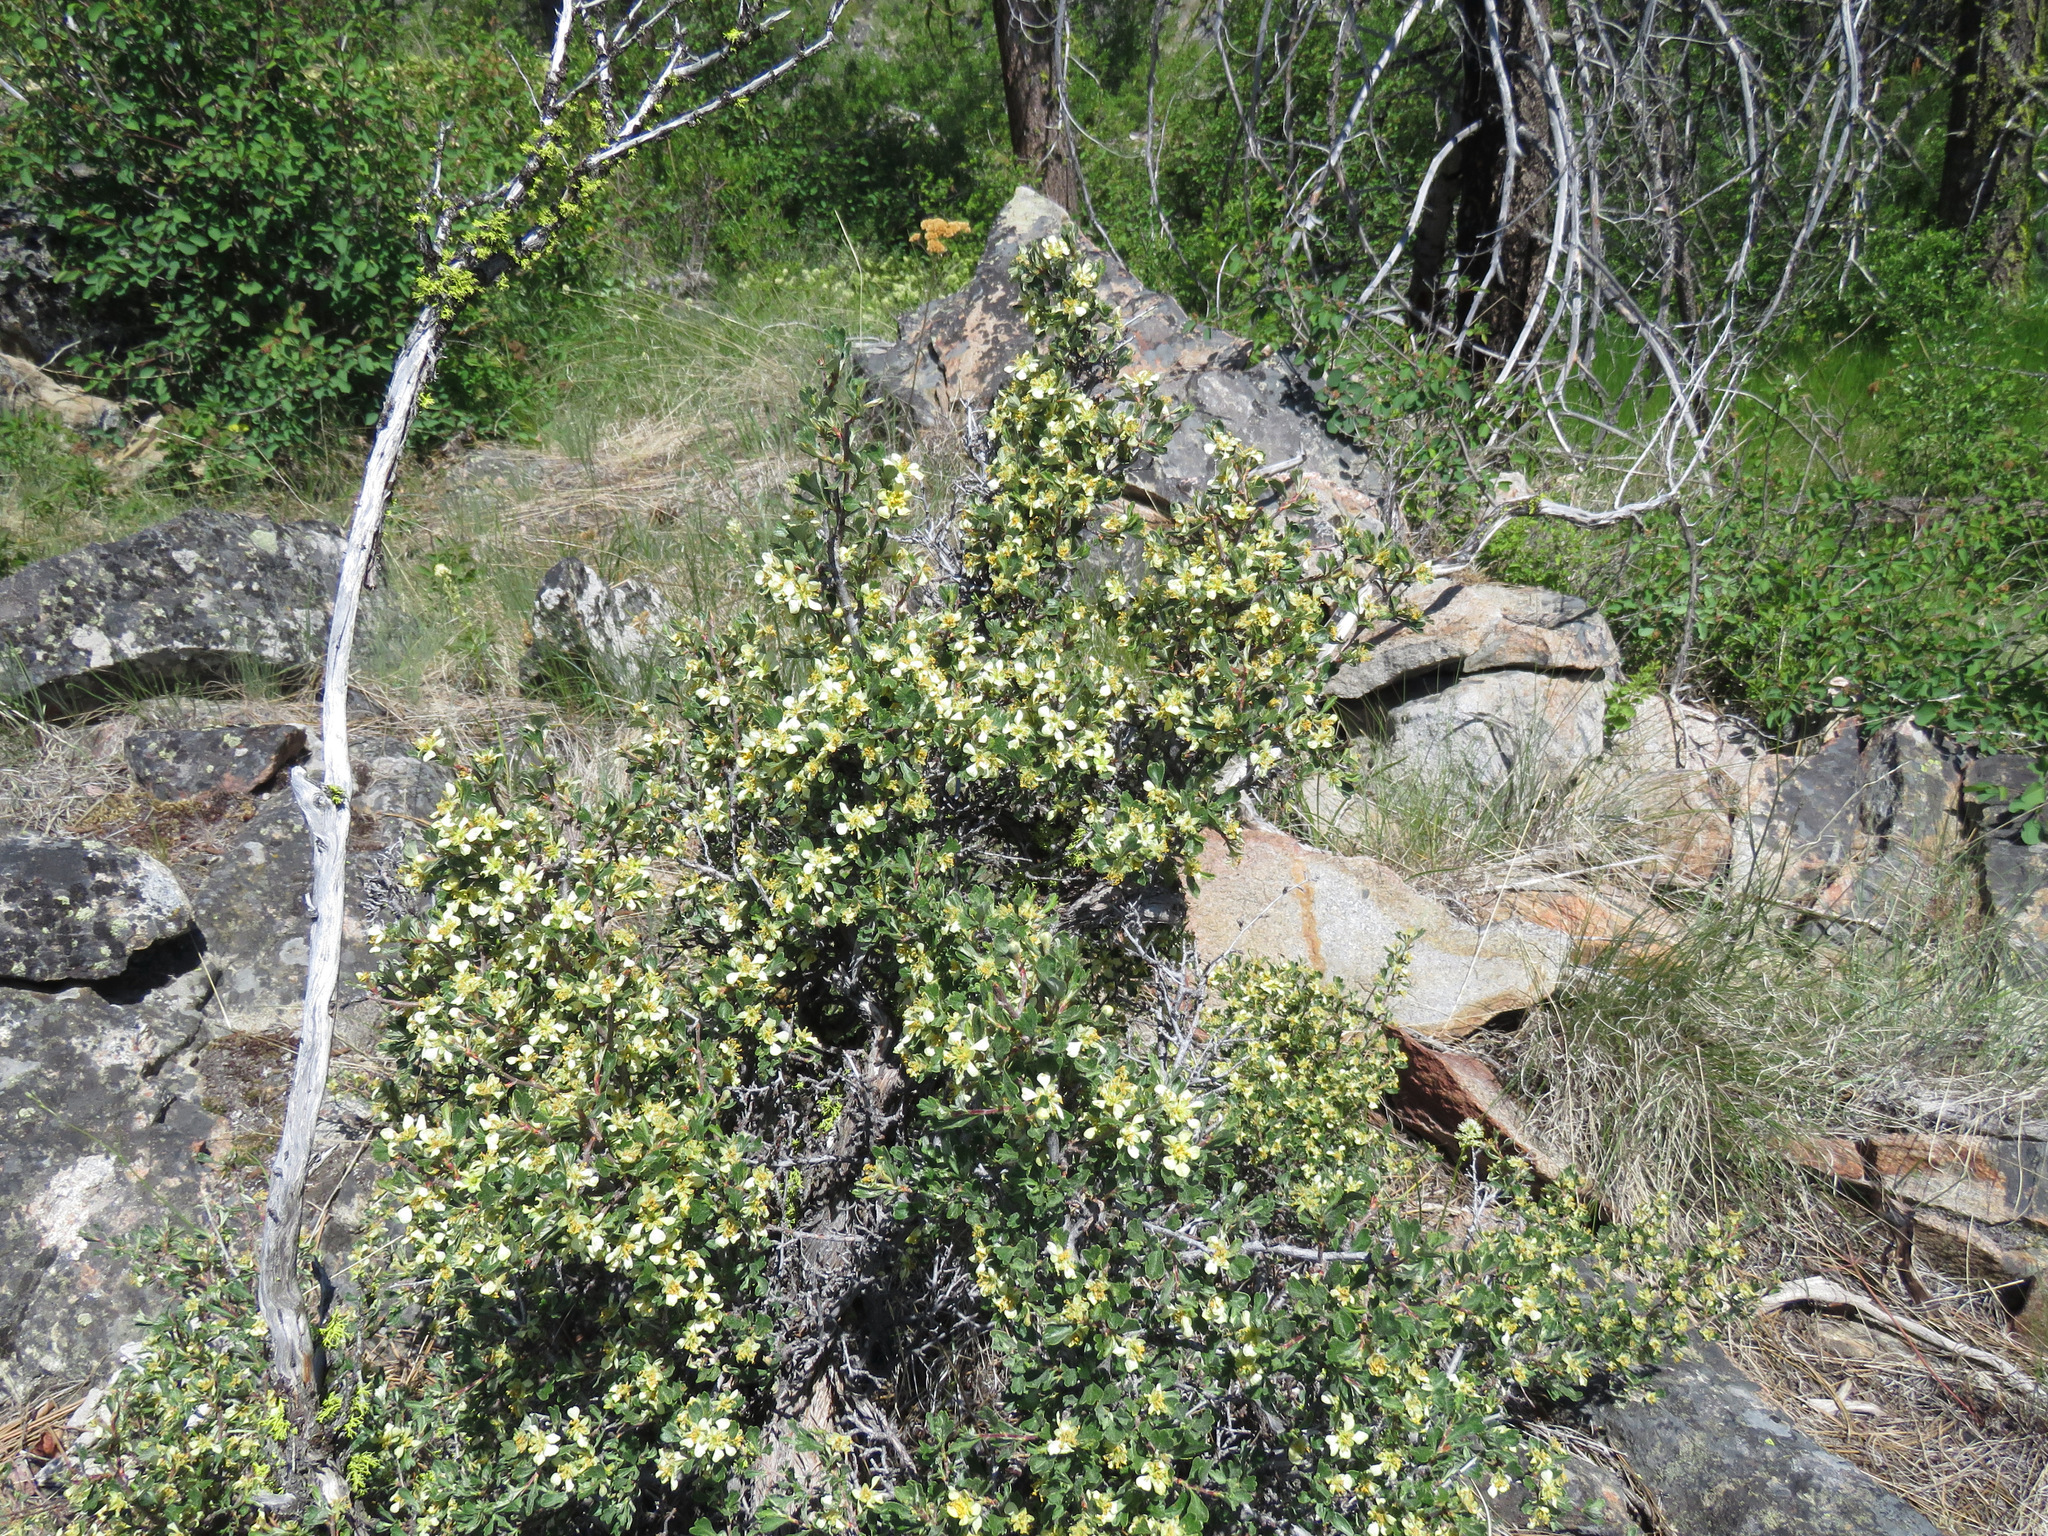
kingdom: Plantae
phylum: Tracheophyta
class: Magnoliopsida
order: Rosales
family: Rosaceae
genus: Purshia
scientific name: Purshia tridentata
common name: Antelope bitterbrush
